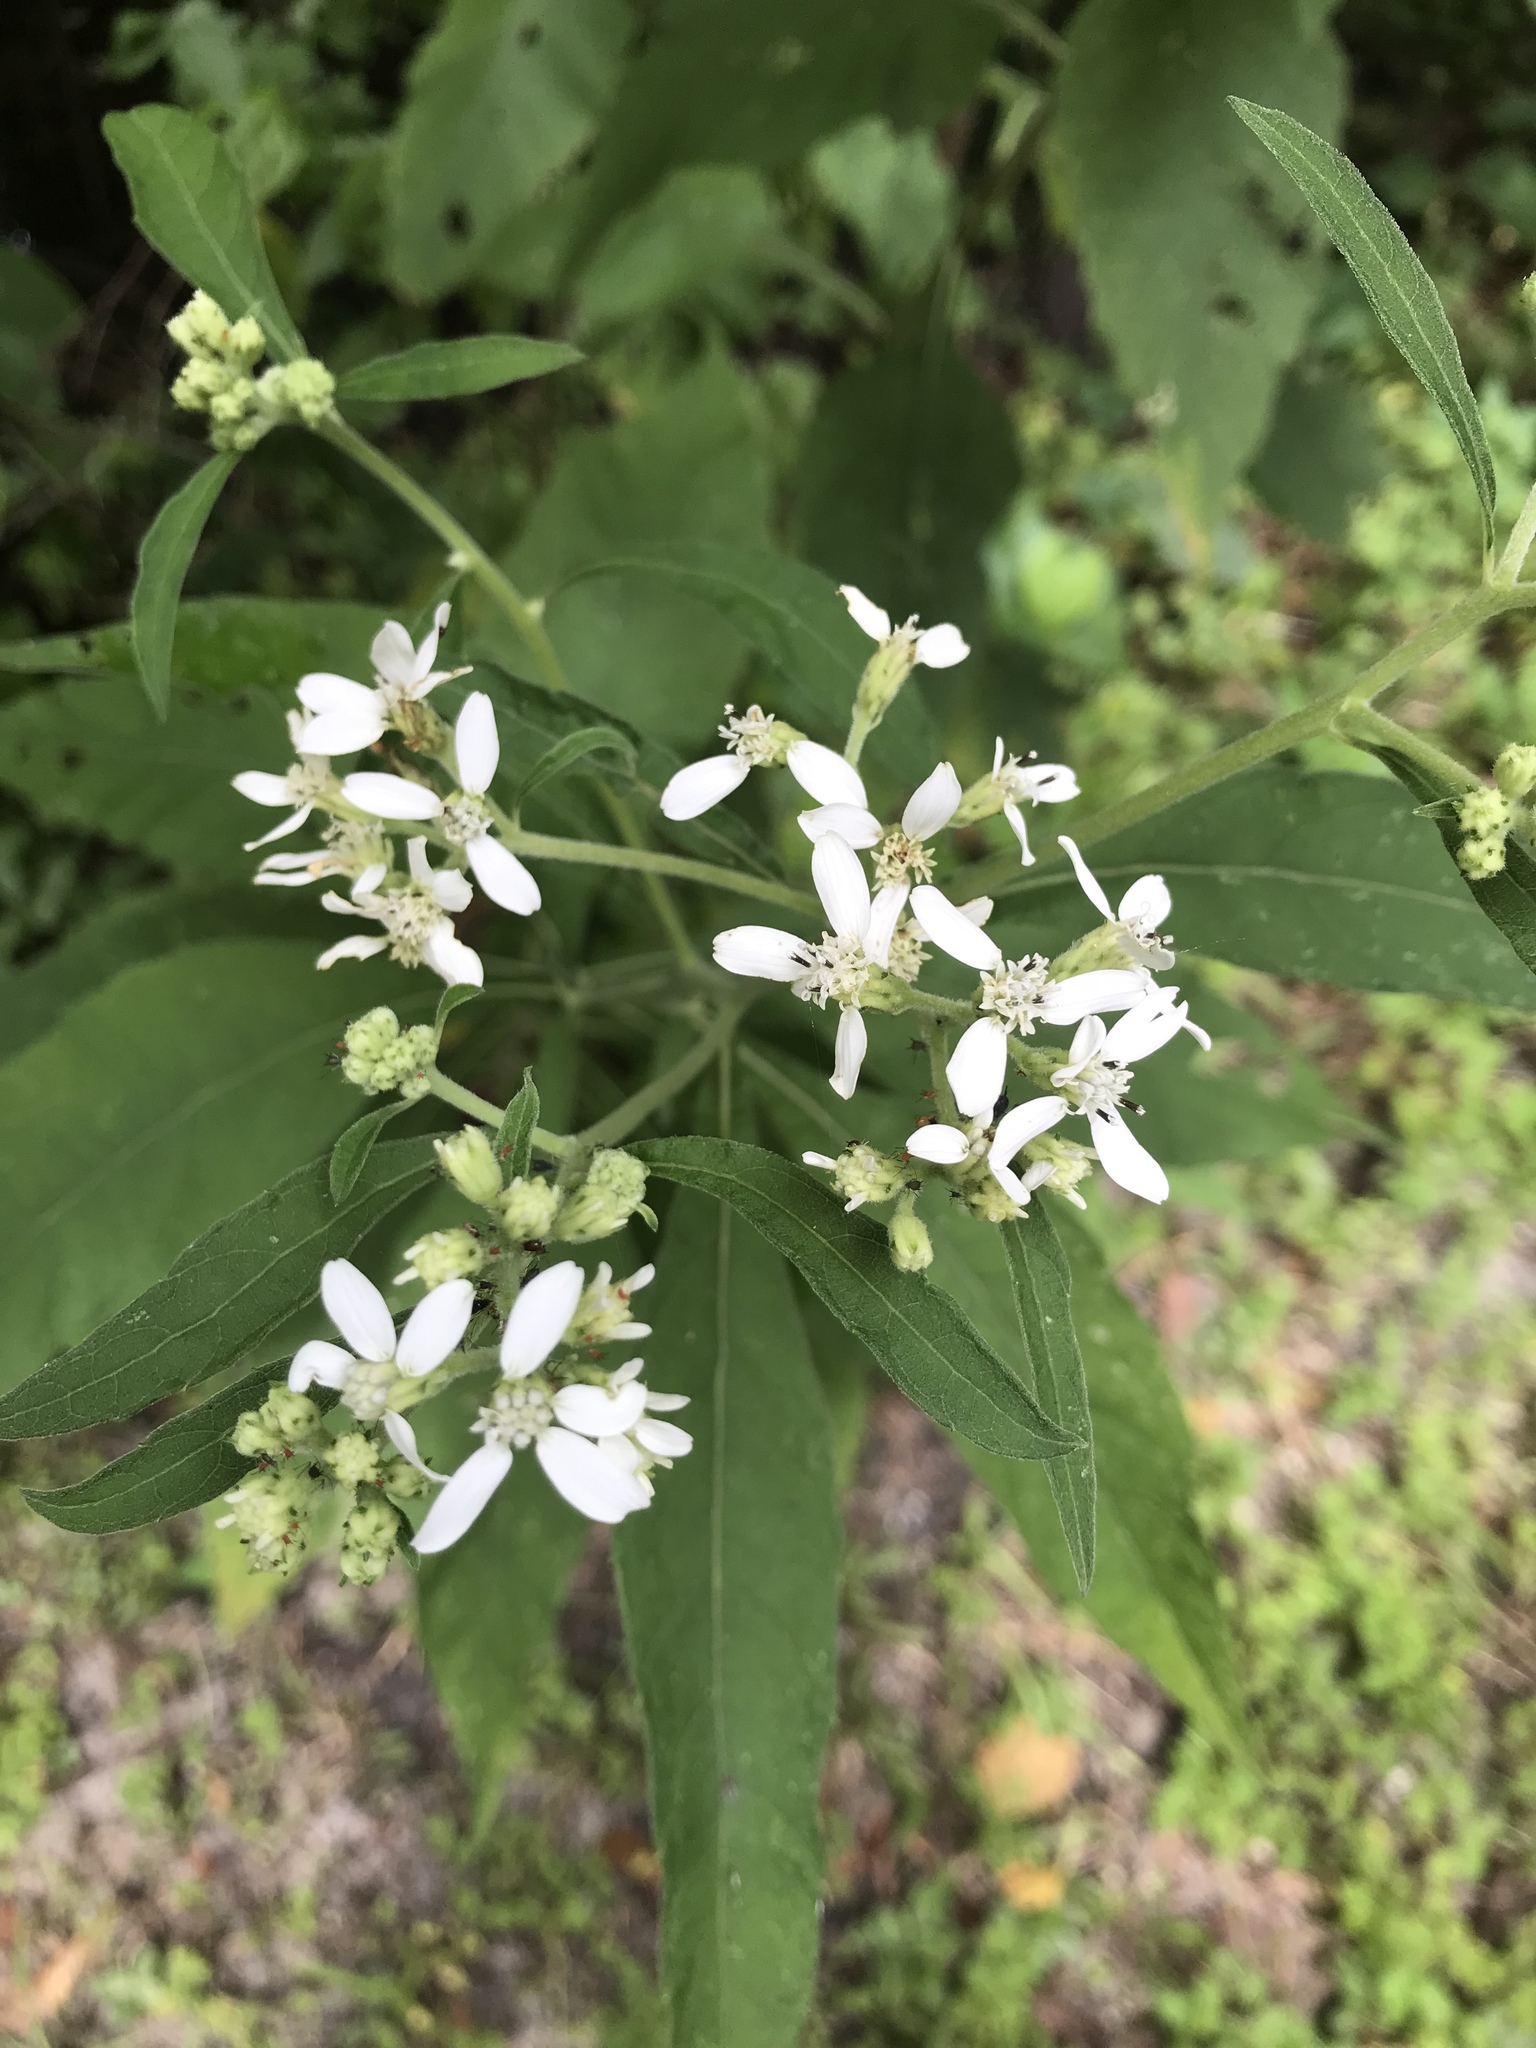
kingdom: Plantae
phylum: Tracheophyta
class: Magnoliopsida
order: Asterales
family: Asteraceae
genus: Verbesina
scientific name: Verbesina virginica
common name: Frostweed
